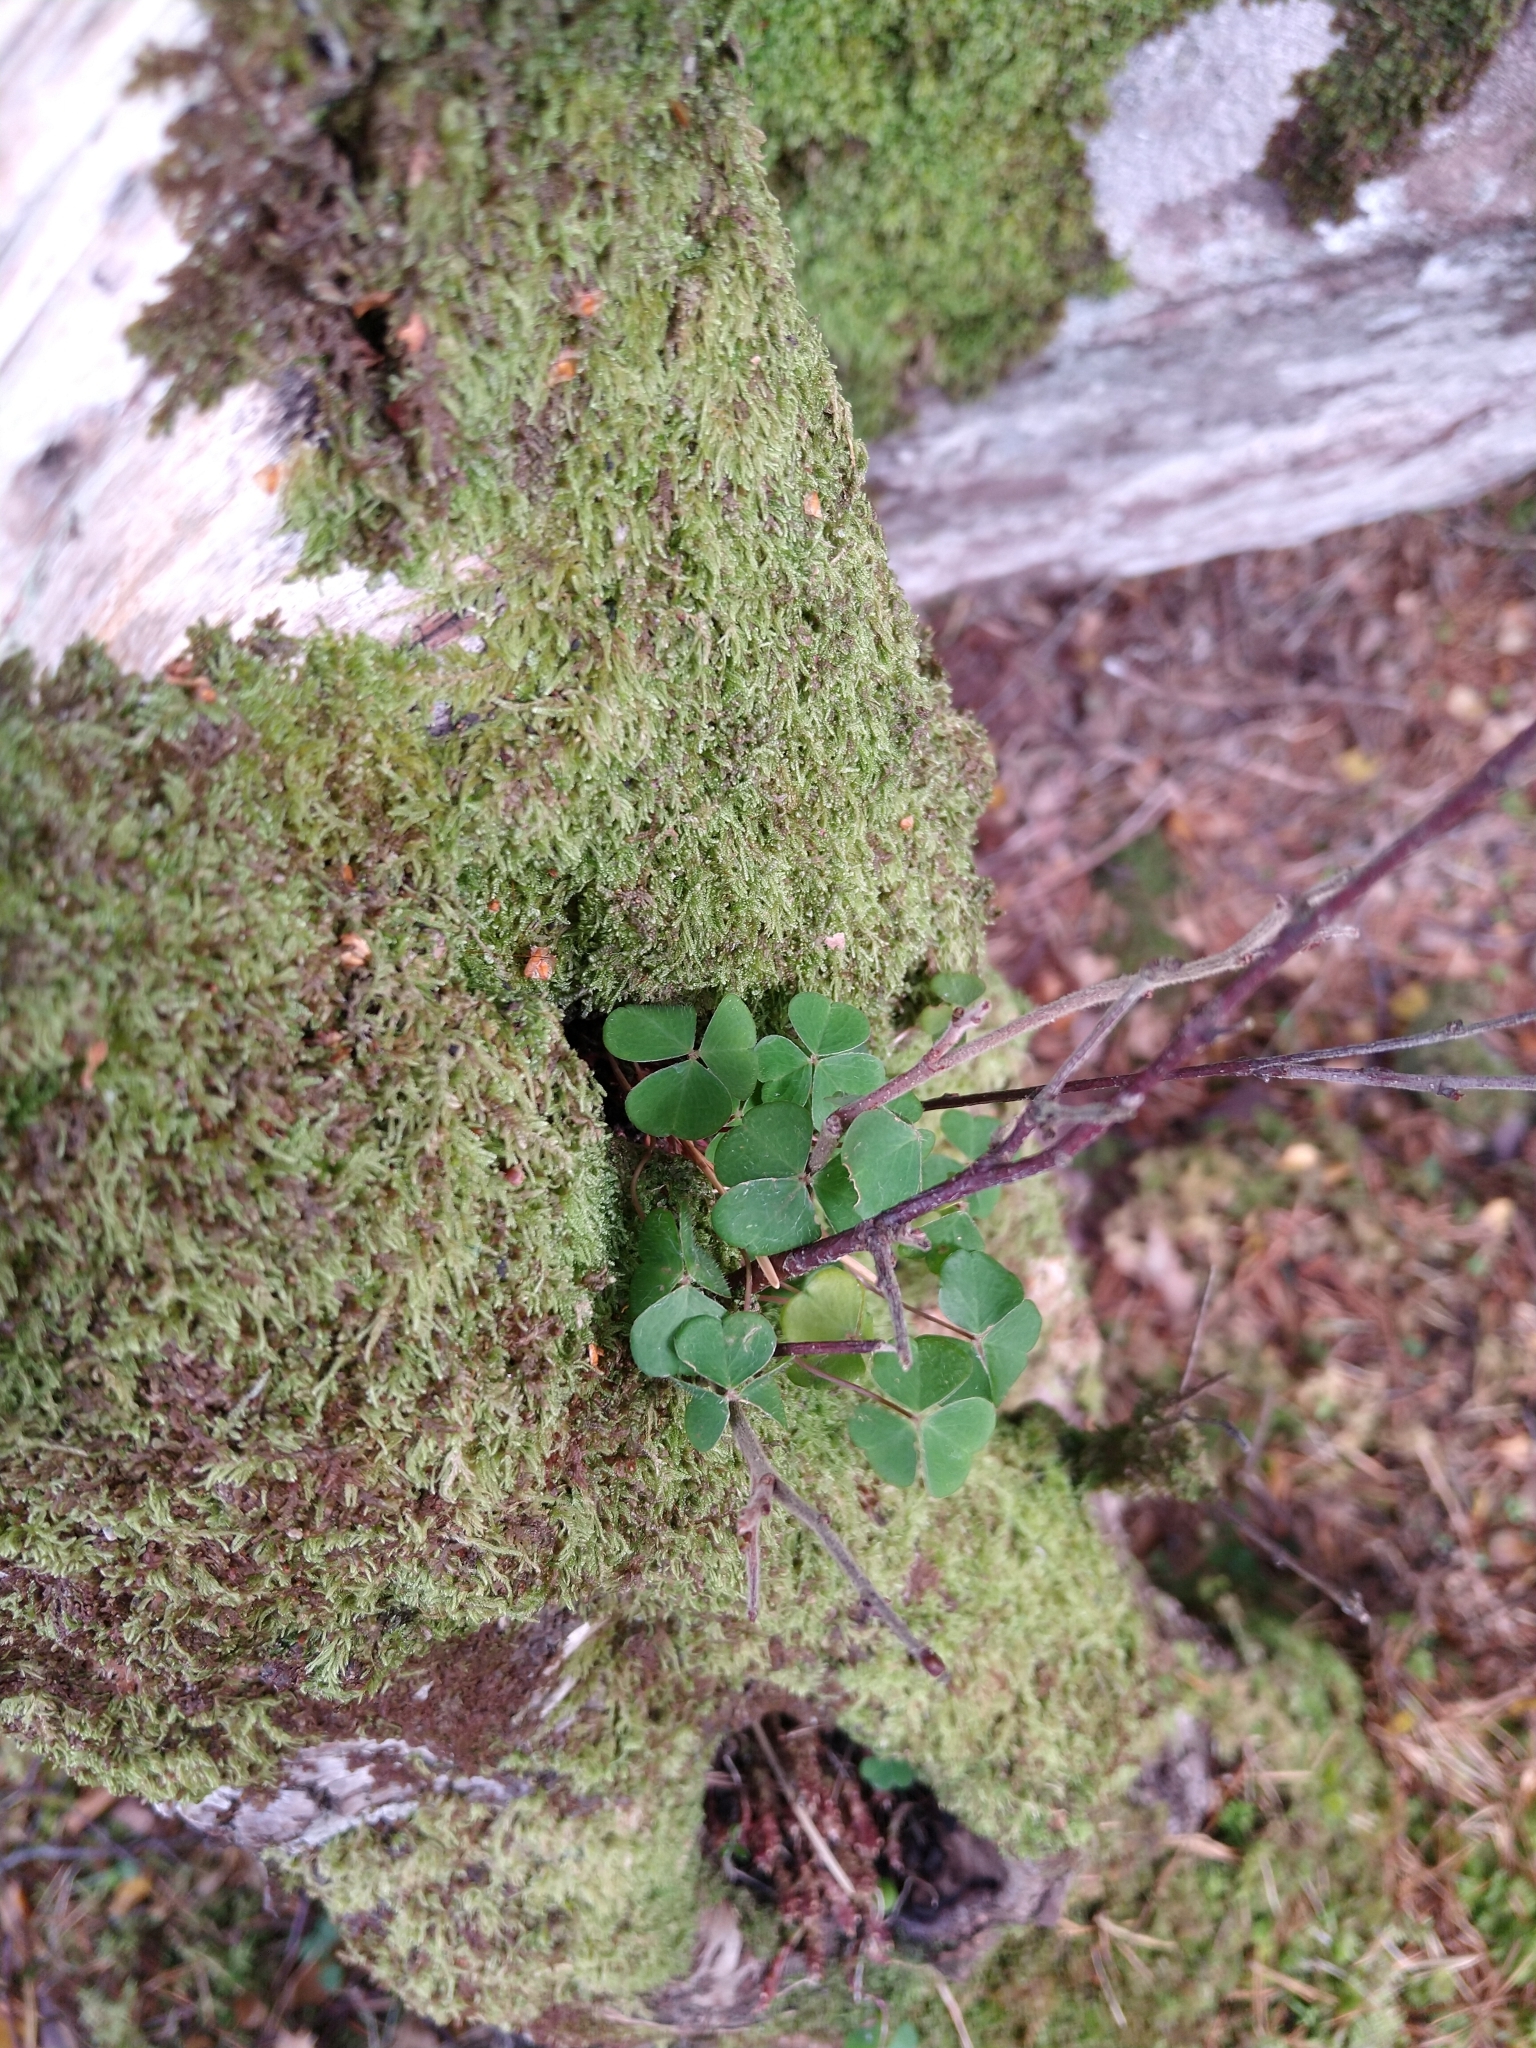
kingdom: Plantae
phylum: Tracheophyta
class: Magnoliopsida
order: Oxalidales
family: Oxalidaceae
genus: Oxalis
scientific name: Oxalis acetosella
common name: Wood-sorrel
